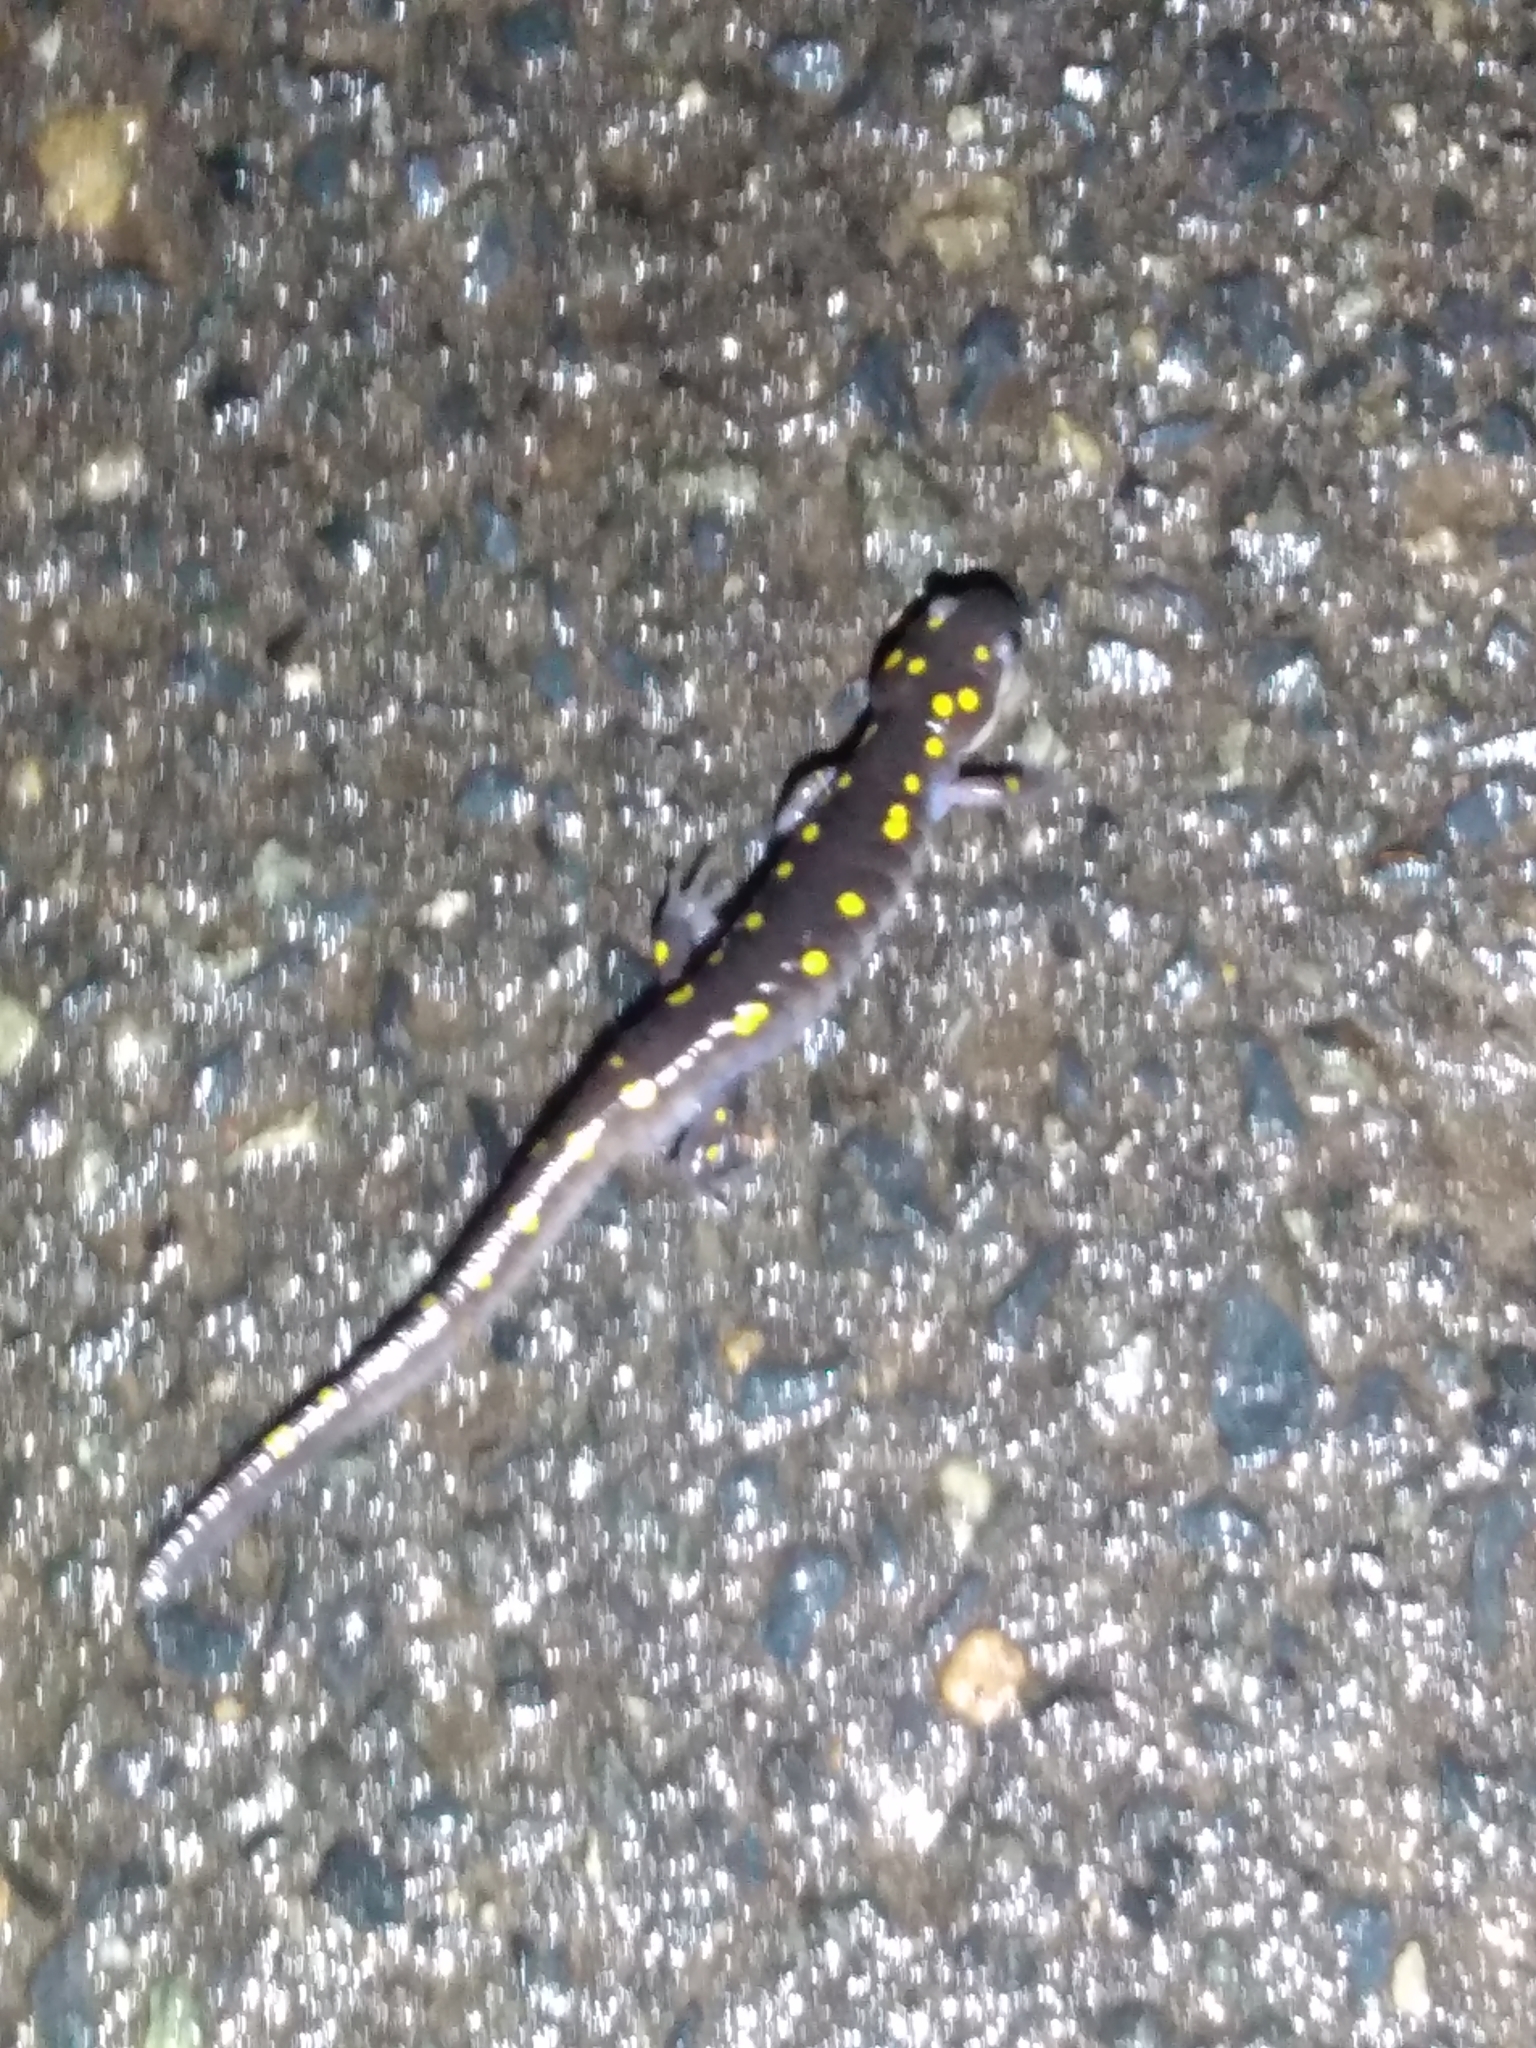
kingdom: Animalia
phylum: Chordata
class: Amphibia
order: Caudata
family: Ambystomatidae
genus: Ambystoma
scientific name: Ambystoma maculatum
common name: Spotted salamander
